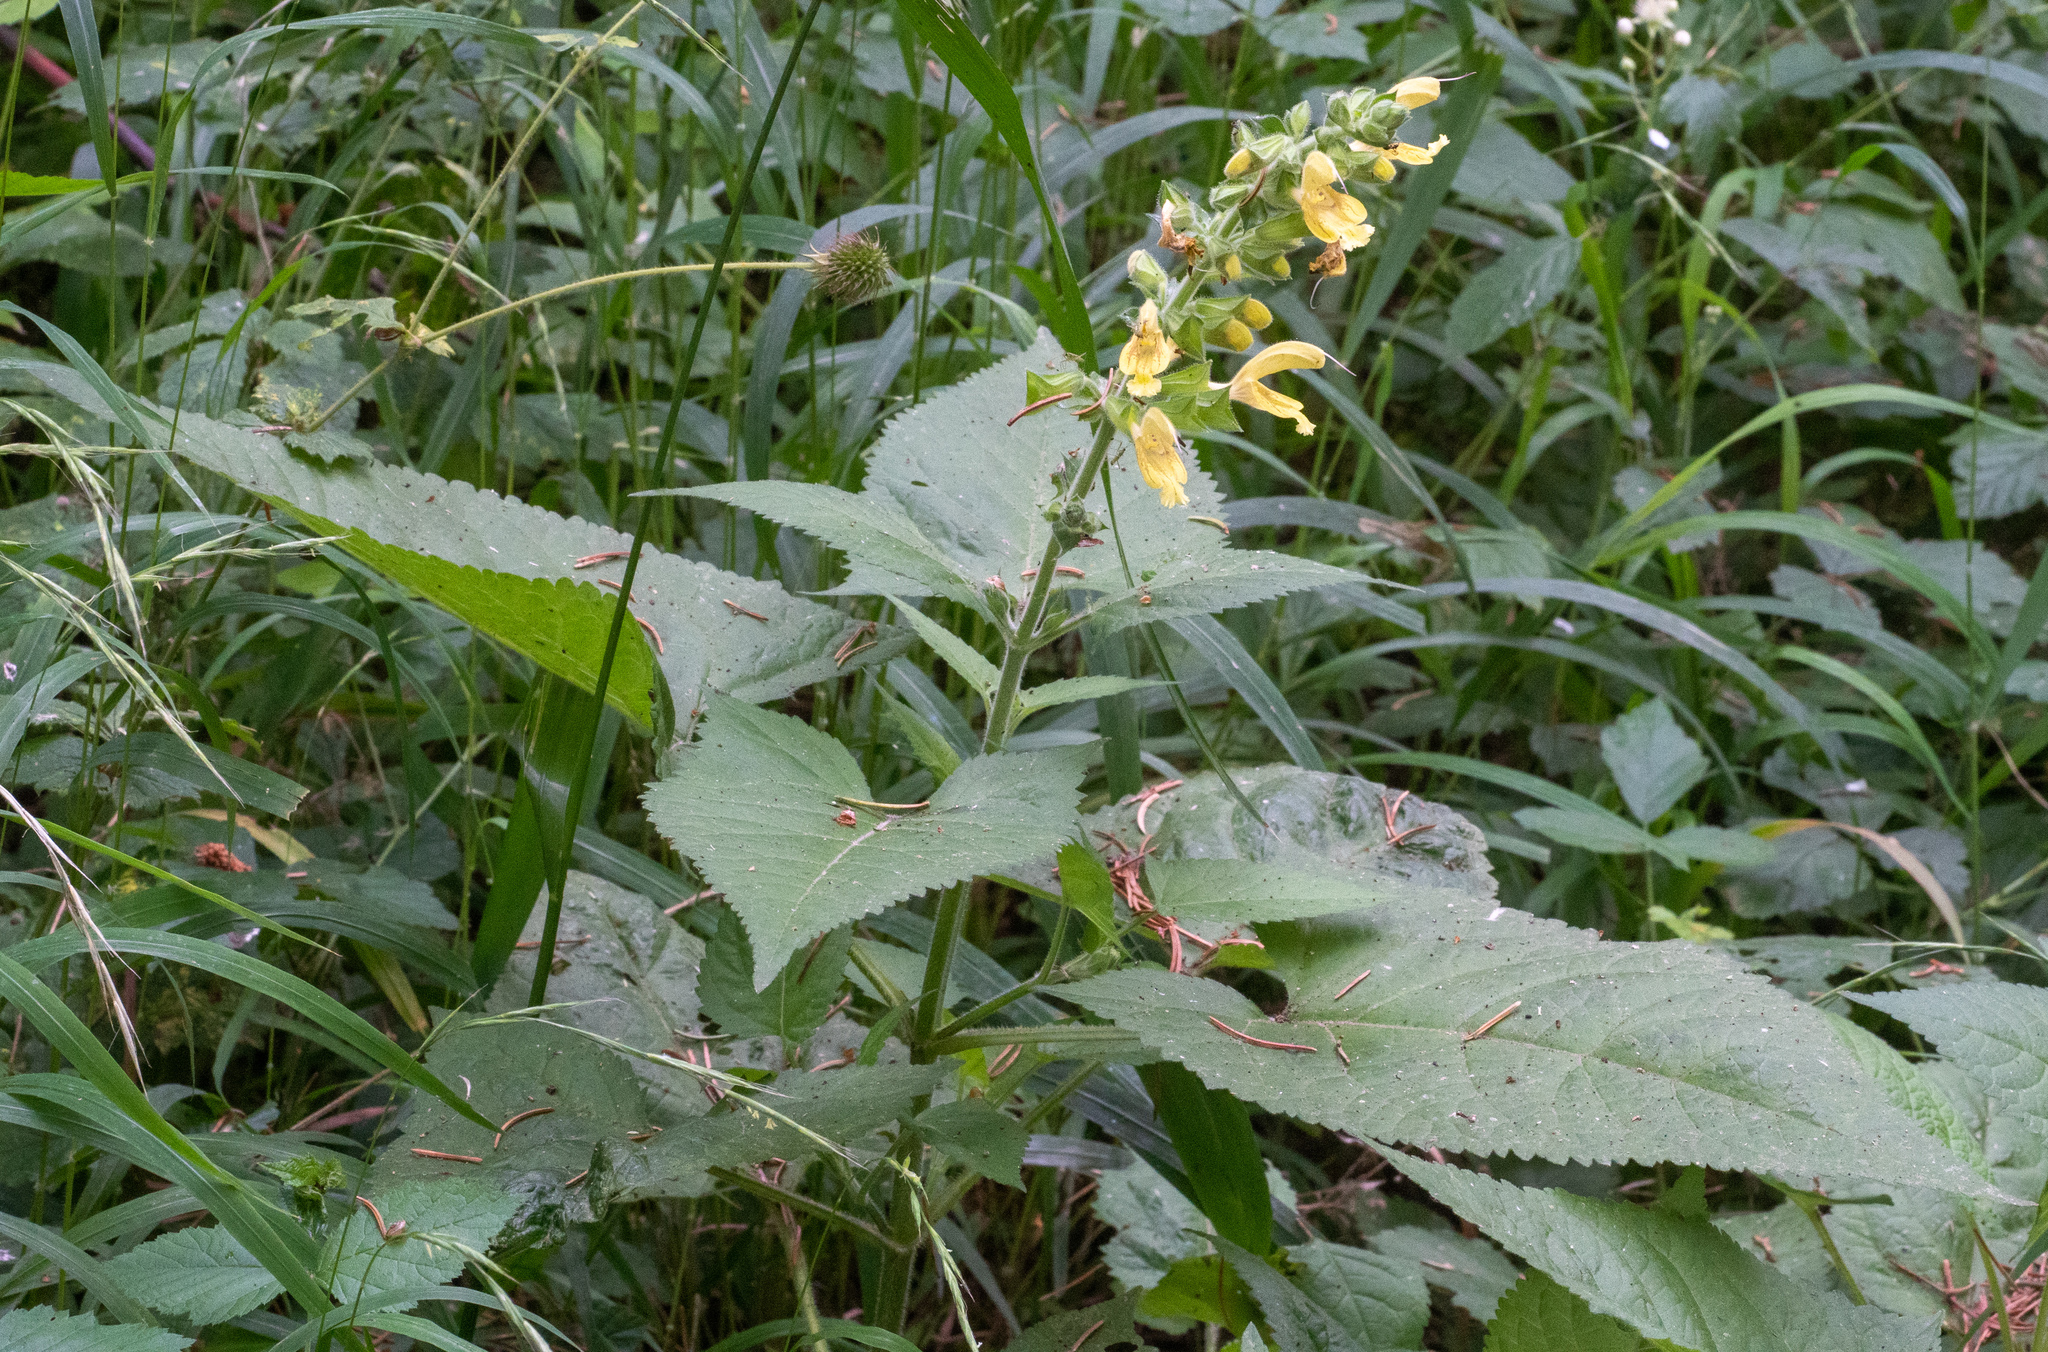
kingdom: Plantae
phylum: Tracheophyta
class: Magnoliopsida
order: Lamiales
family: Lamiaceae
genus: Salvia
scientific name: Salvia glutinosa
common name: Sticky clary
